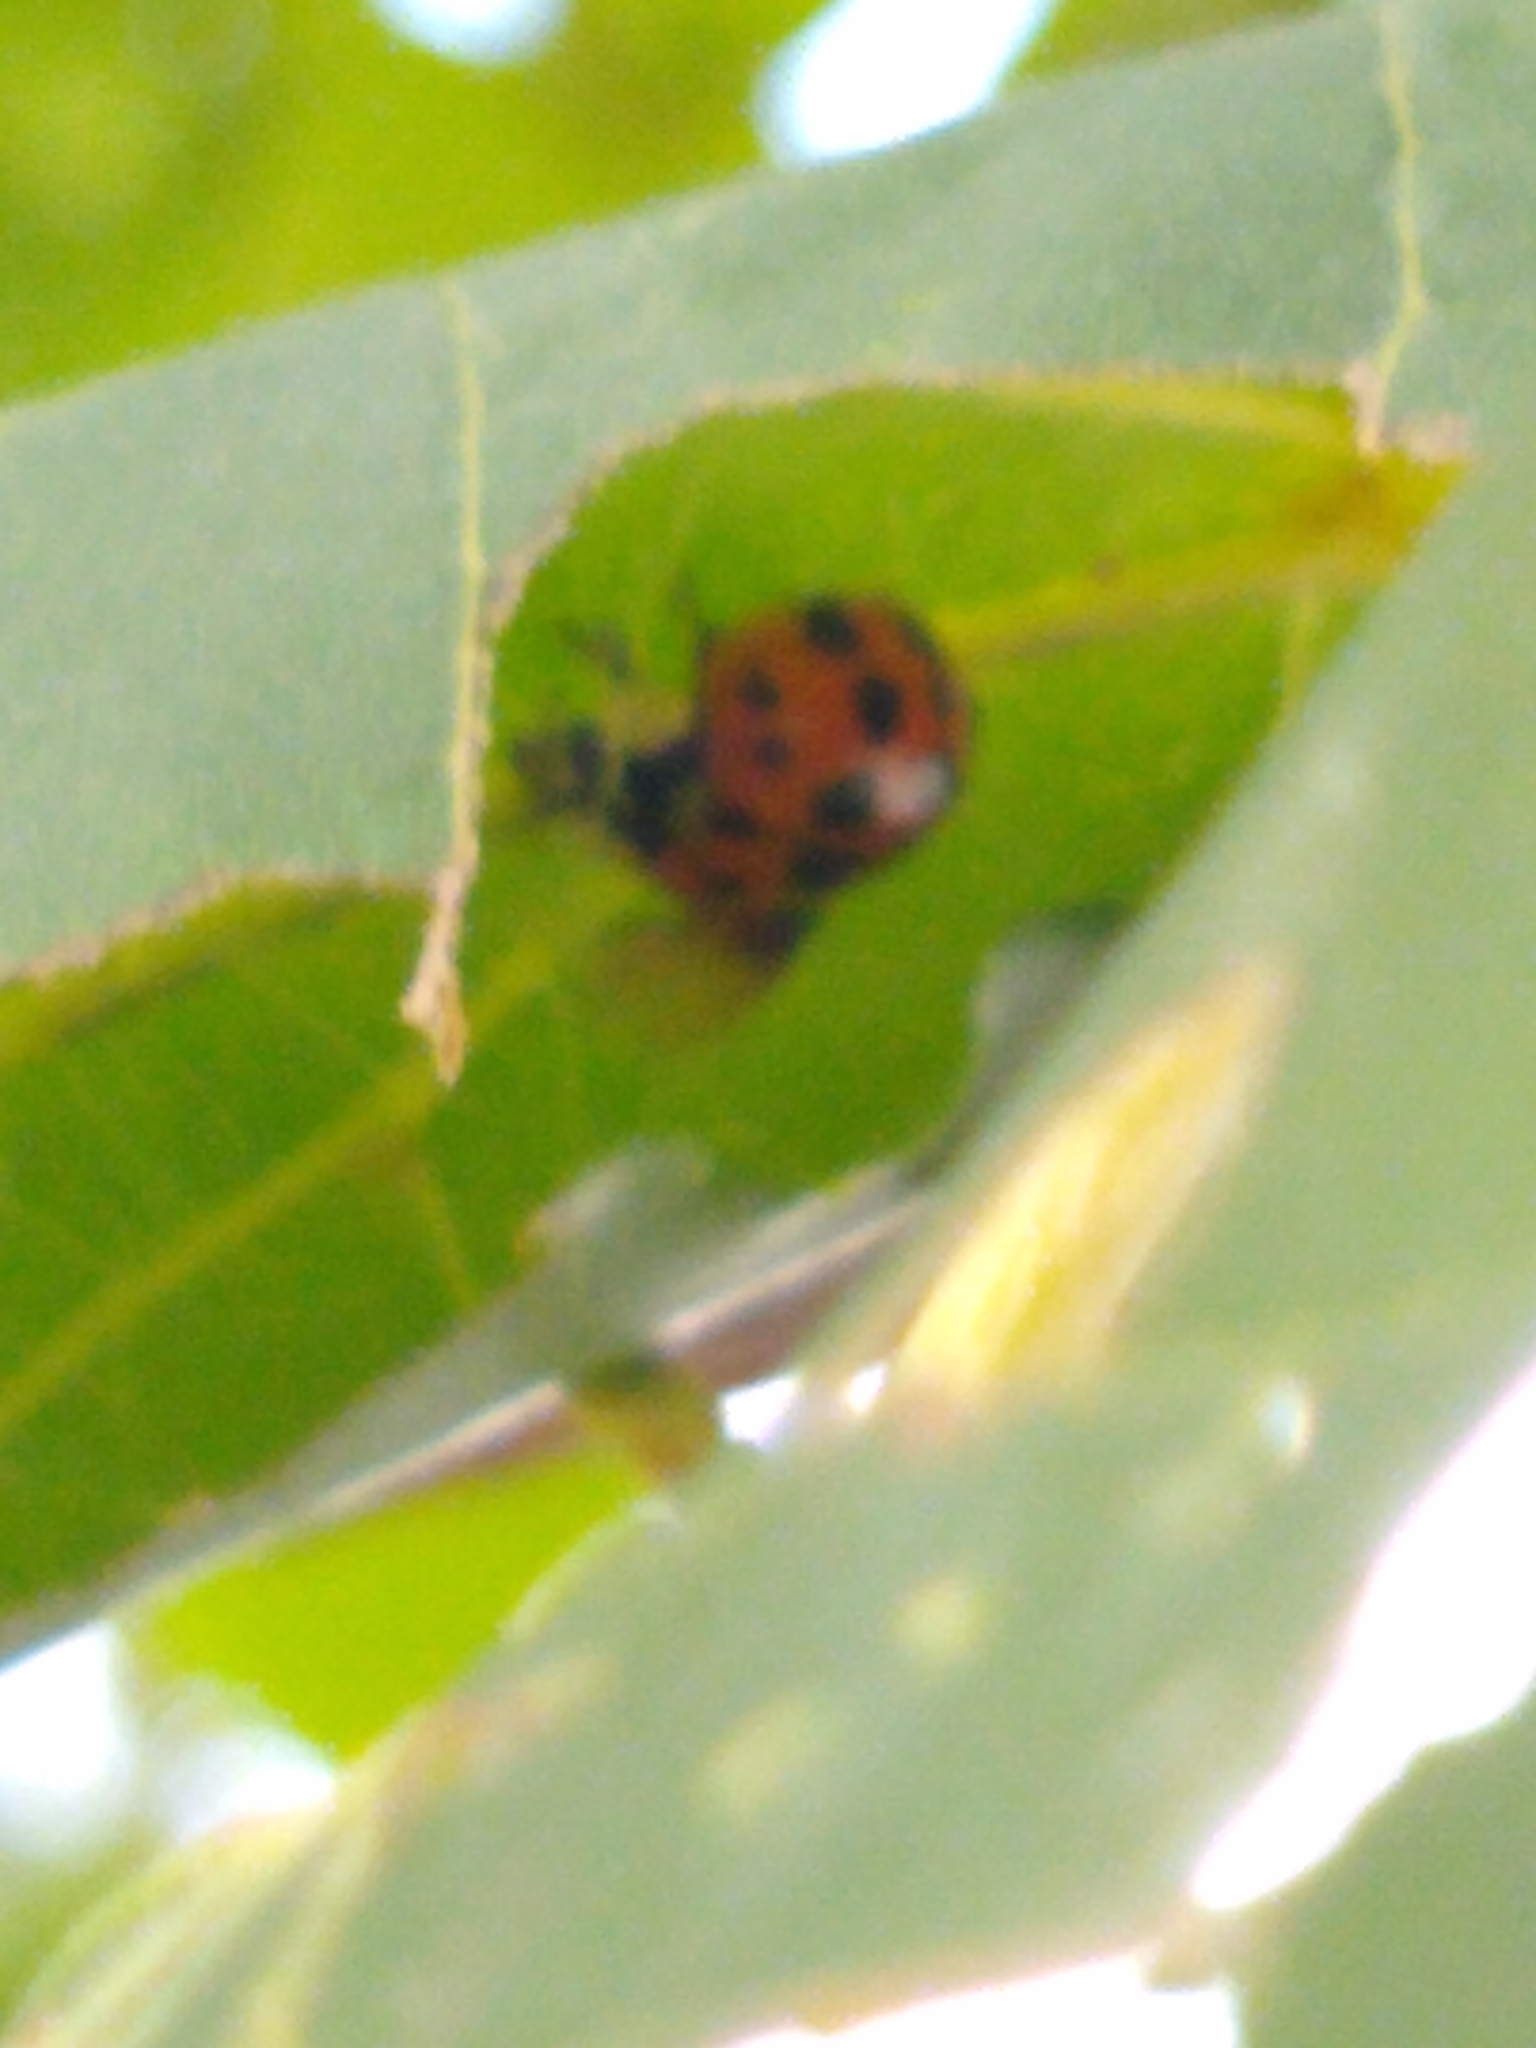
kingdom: Animalia
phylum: Arthropoda
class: Insecta
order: Coleoptera
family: Coccinellidae
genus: Harmonia
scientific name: Harmonia axyridis
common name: Harlequin ladybird
